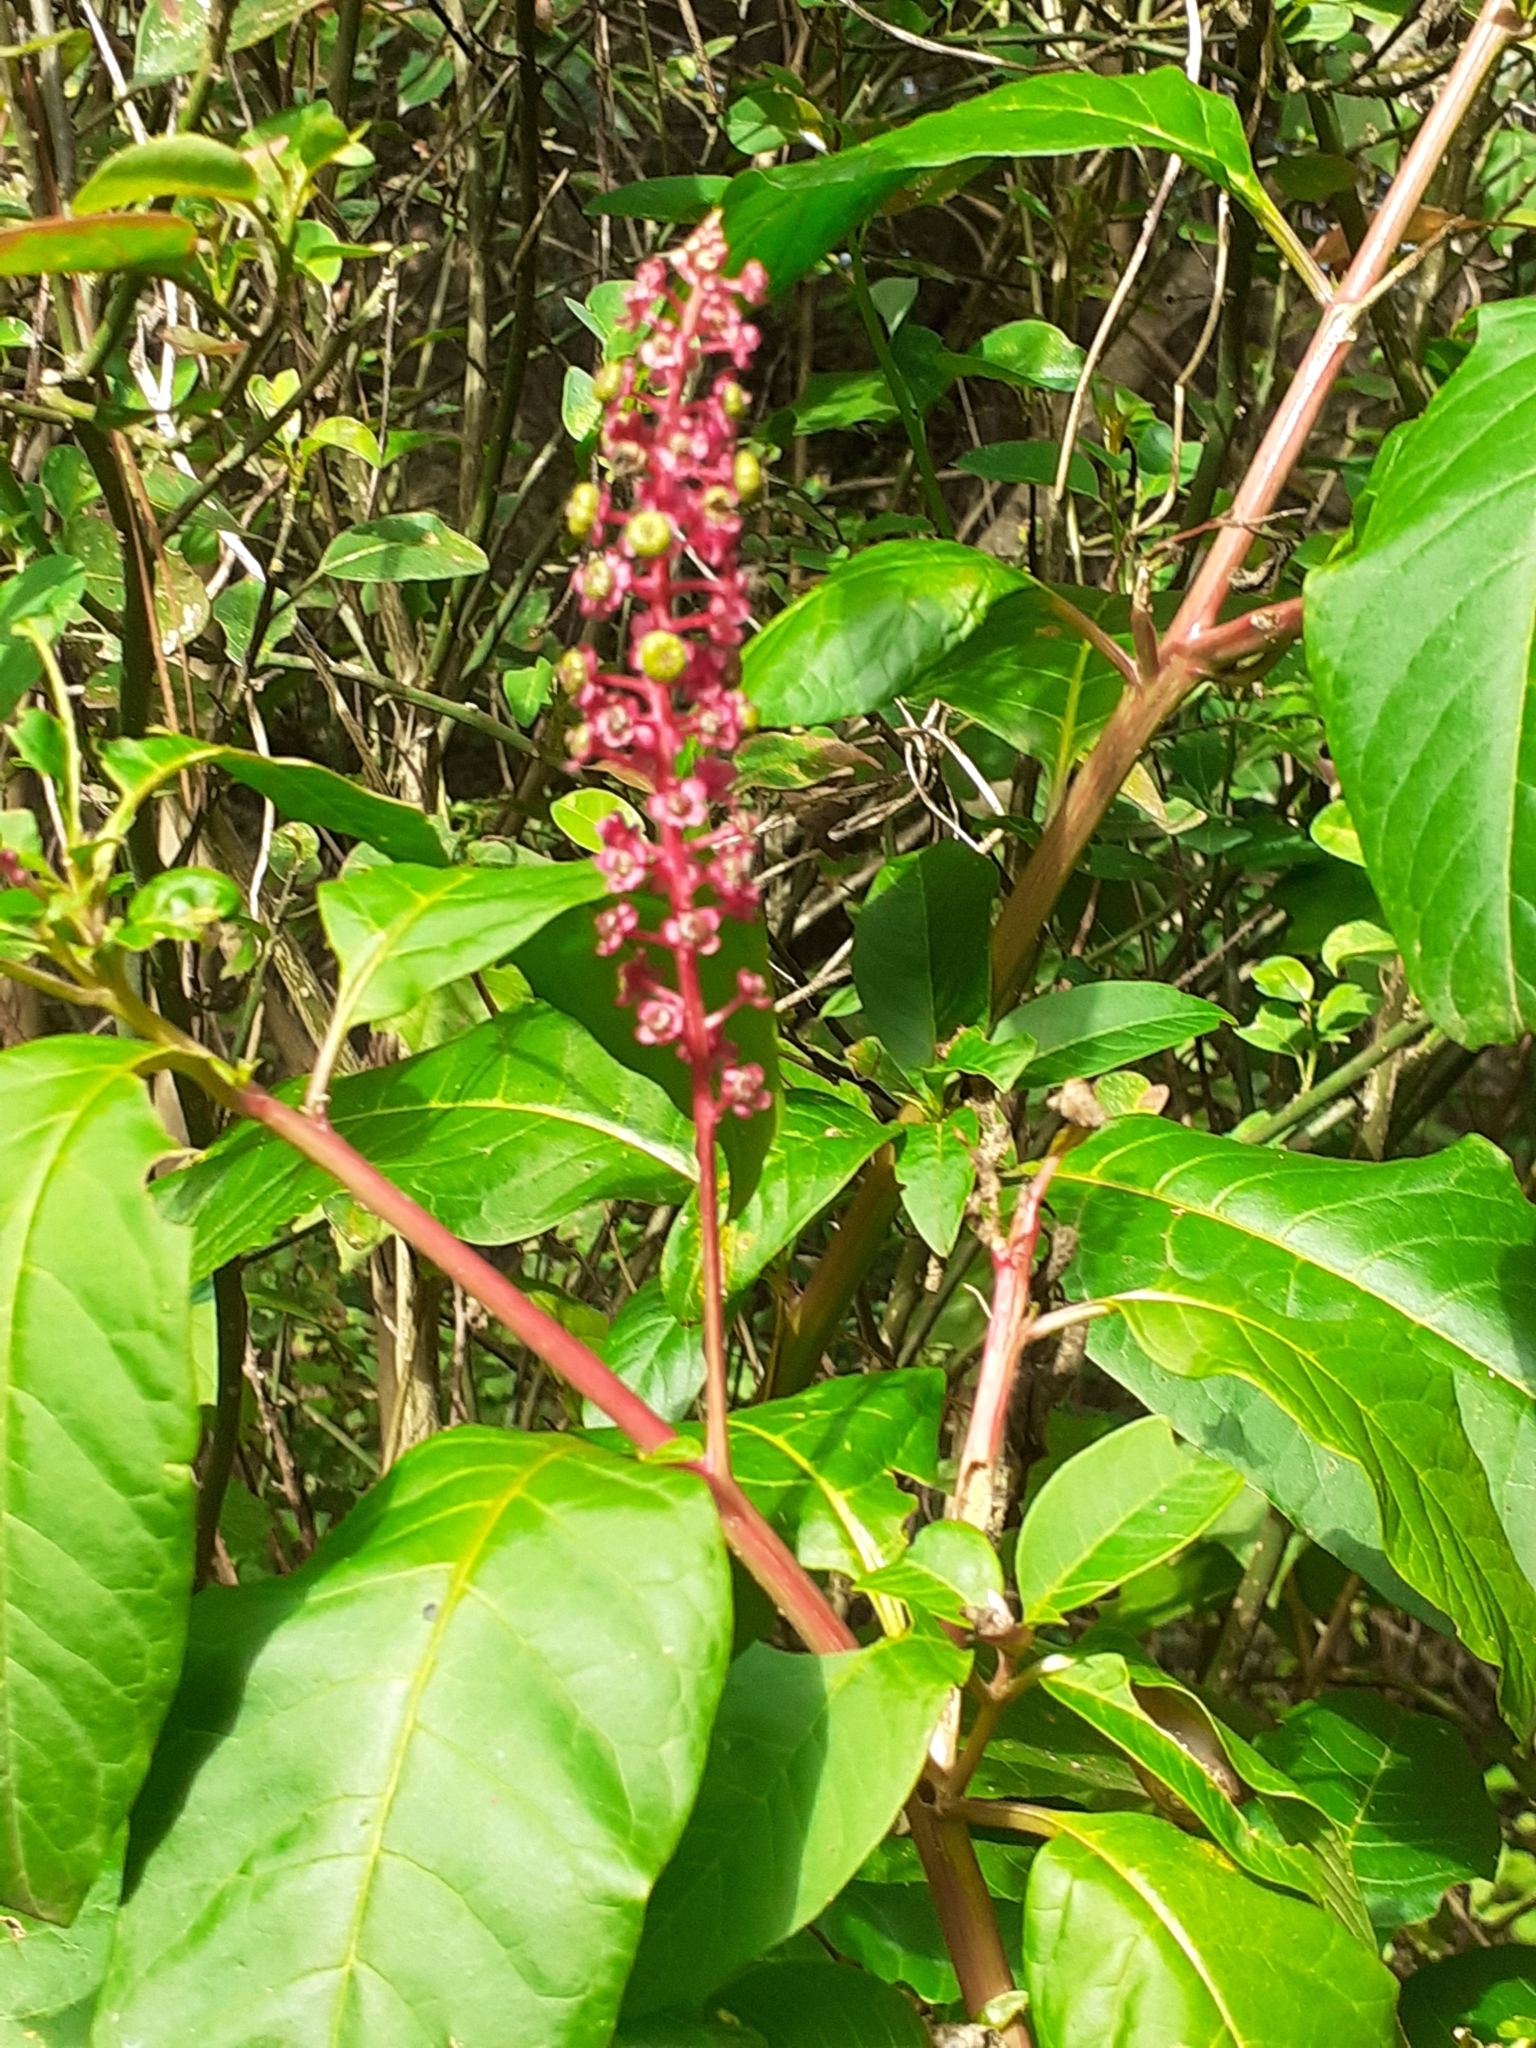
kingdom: Plantae
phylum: Tracheophyta
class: Magnoliopsida
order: Caryophyllales
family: Phytolaccaceae
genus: Phytolacca
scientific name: Phytolacca americana
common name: American pokeweed
